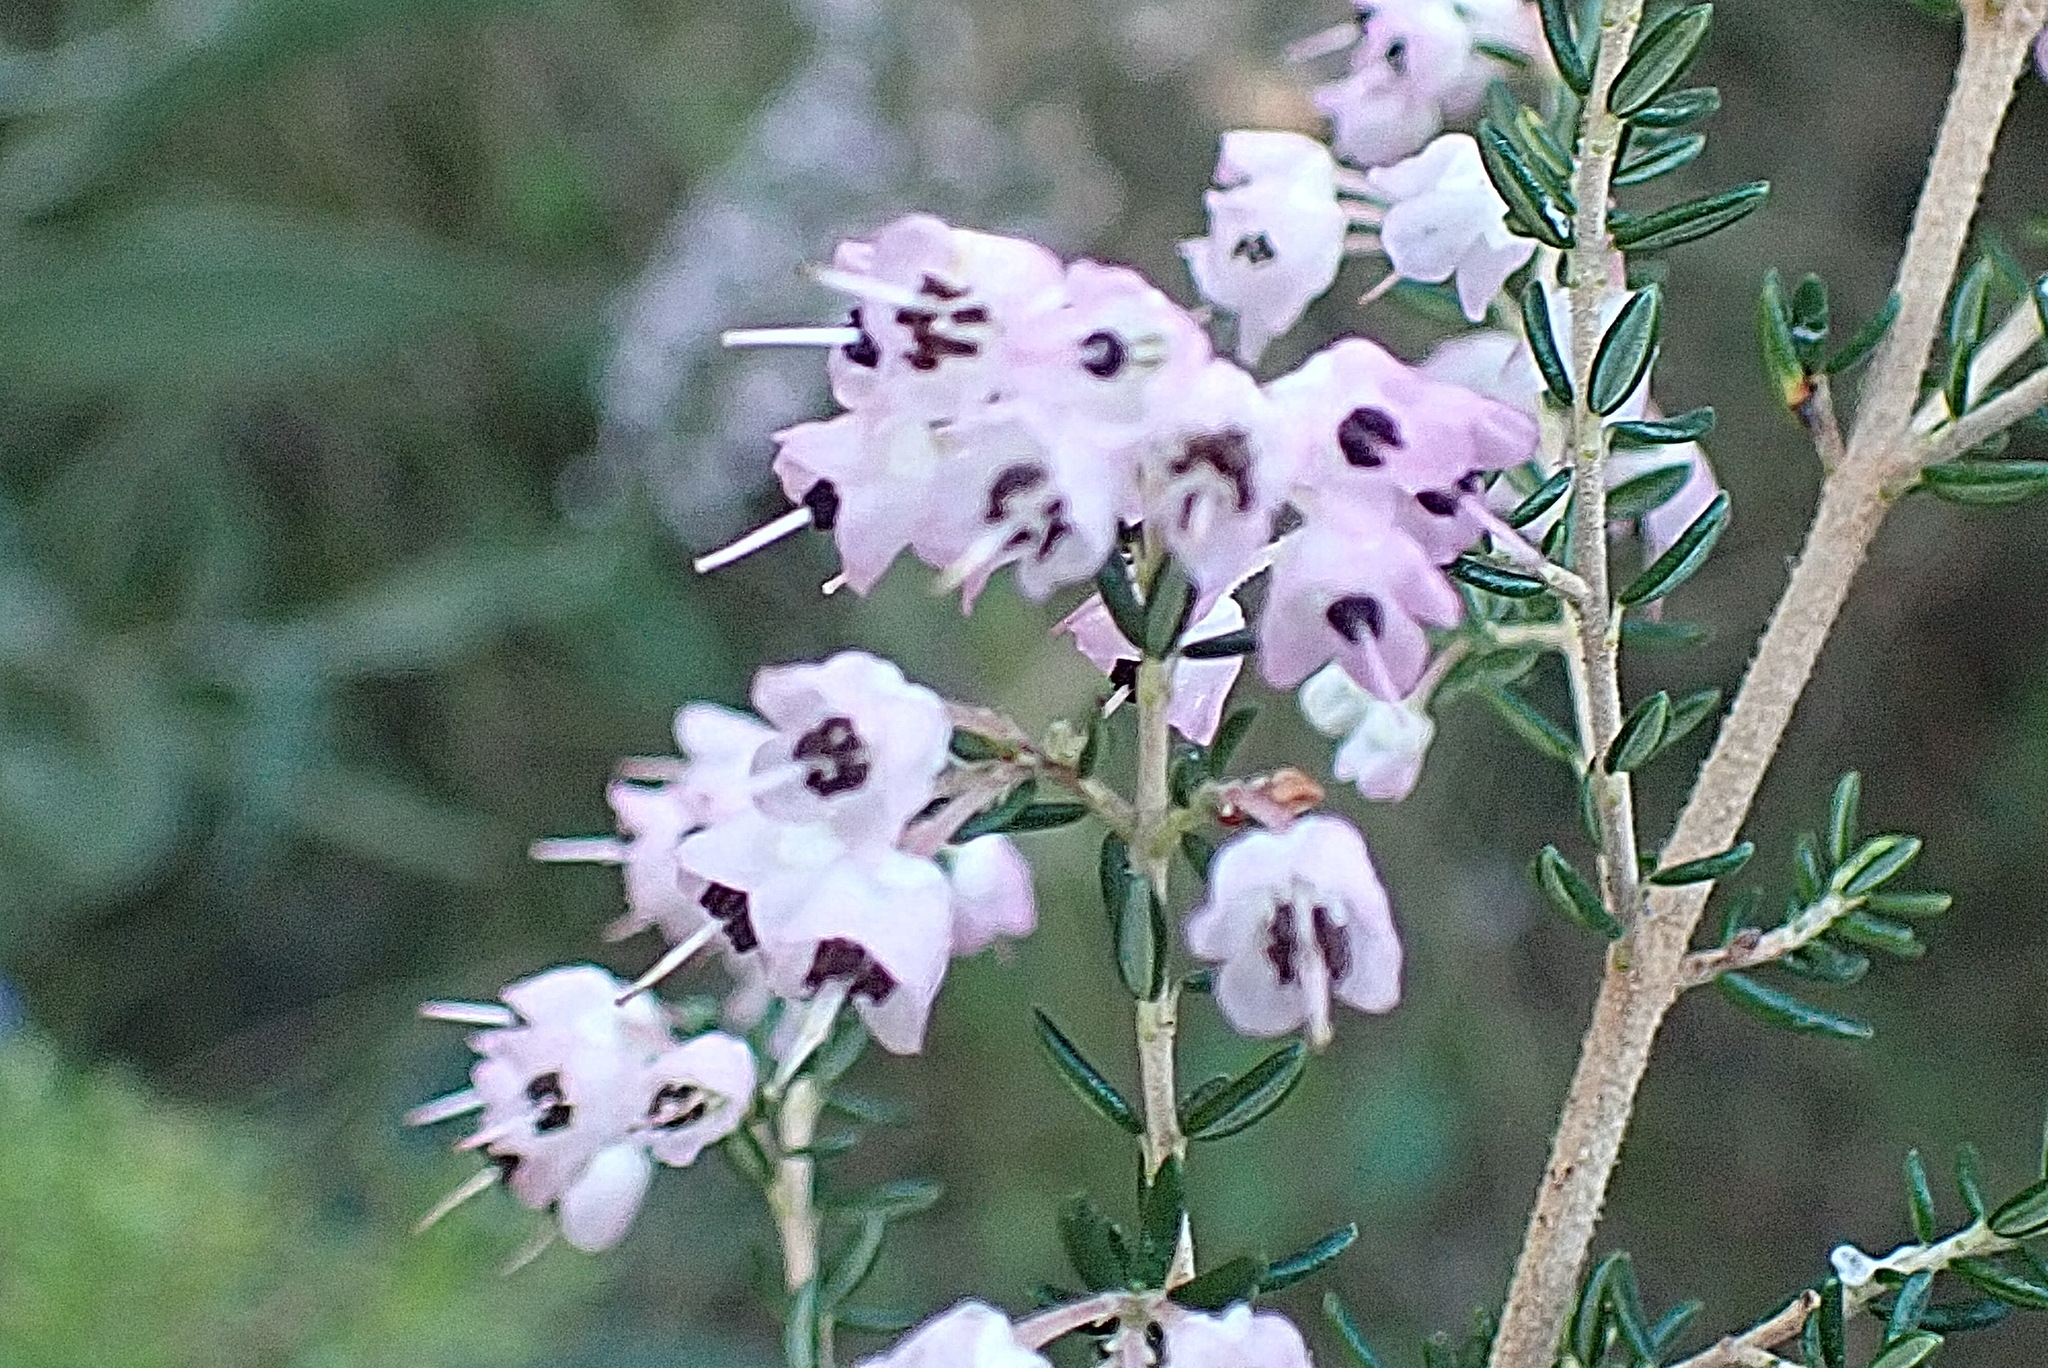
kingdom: Plantae
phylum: Tracheophyta
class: Magnoliopsida
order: Ericales
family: Ericaceae
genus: Erica
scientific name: Erica canaliculata
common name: Hairy grey heather
